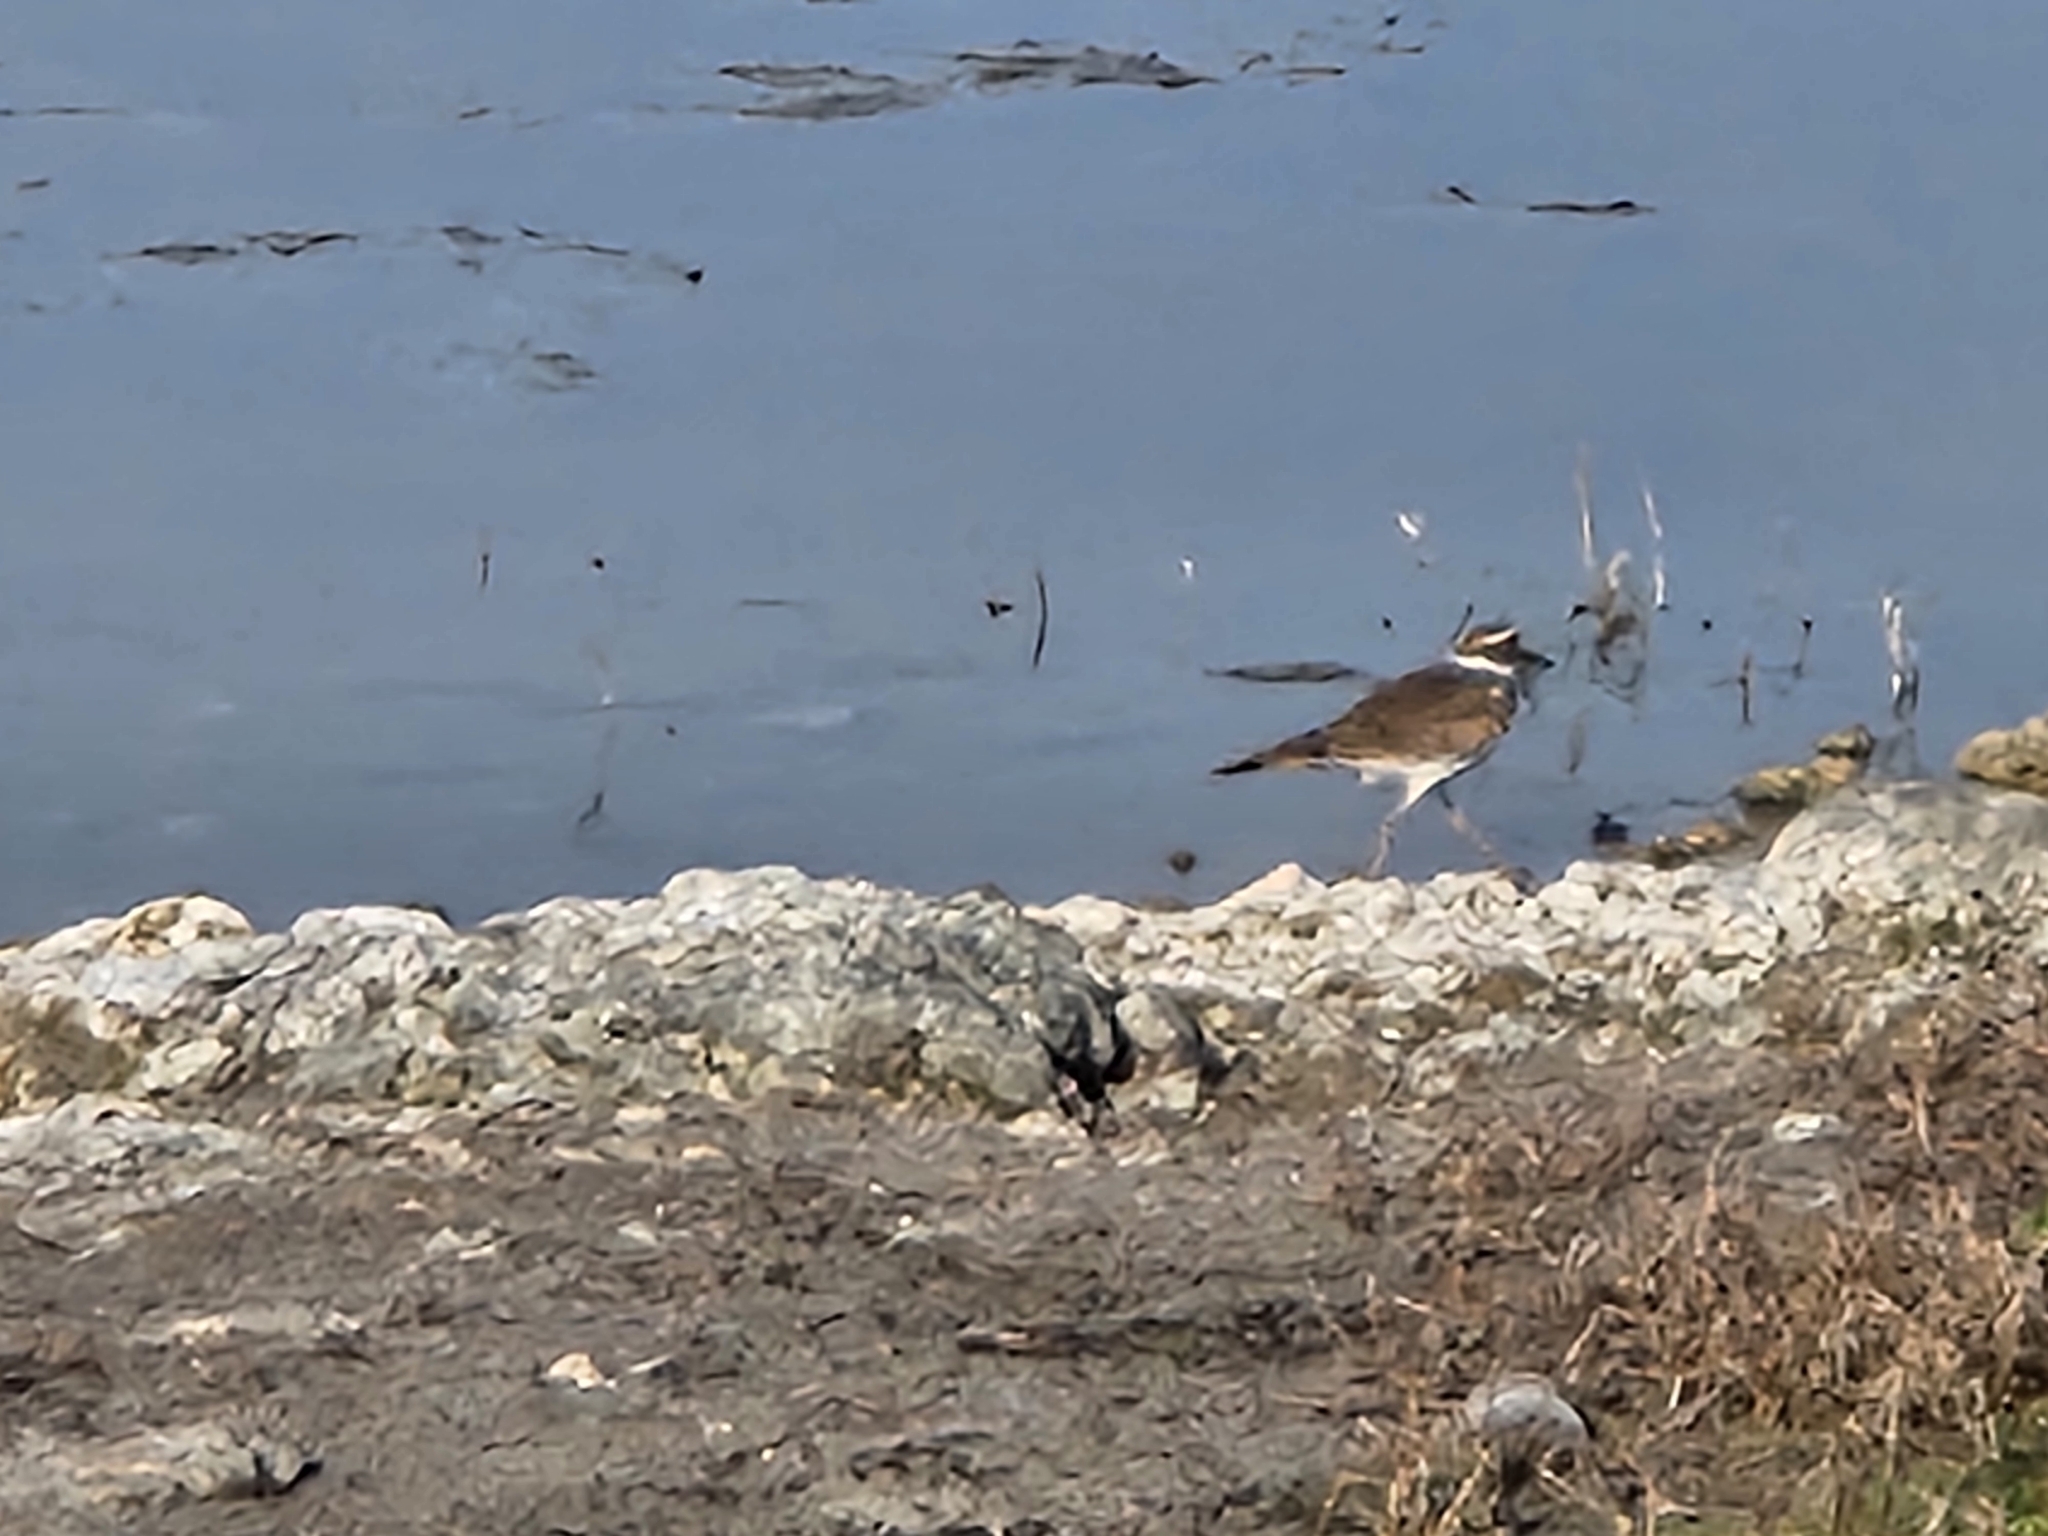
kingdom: Animalia
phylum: Chordata
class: Aves
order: Charadriiformes
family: Charadriidae
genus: Charadrius
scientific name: Charadrius vociferus
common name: Killdeer
